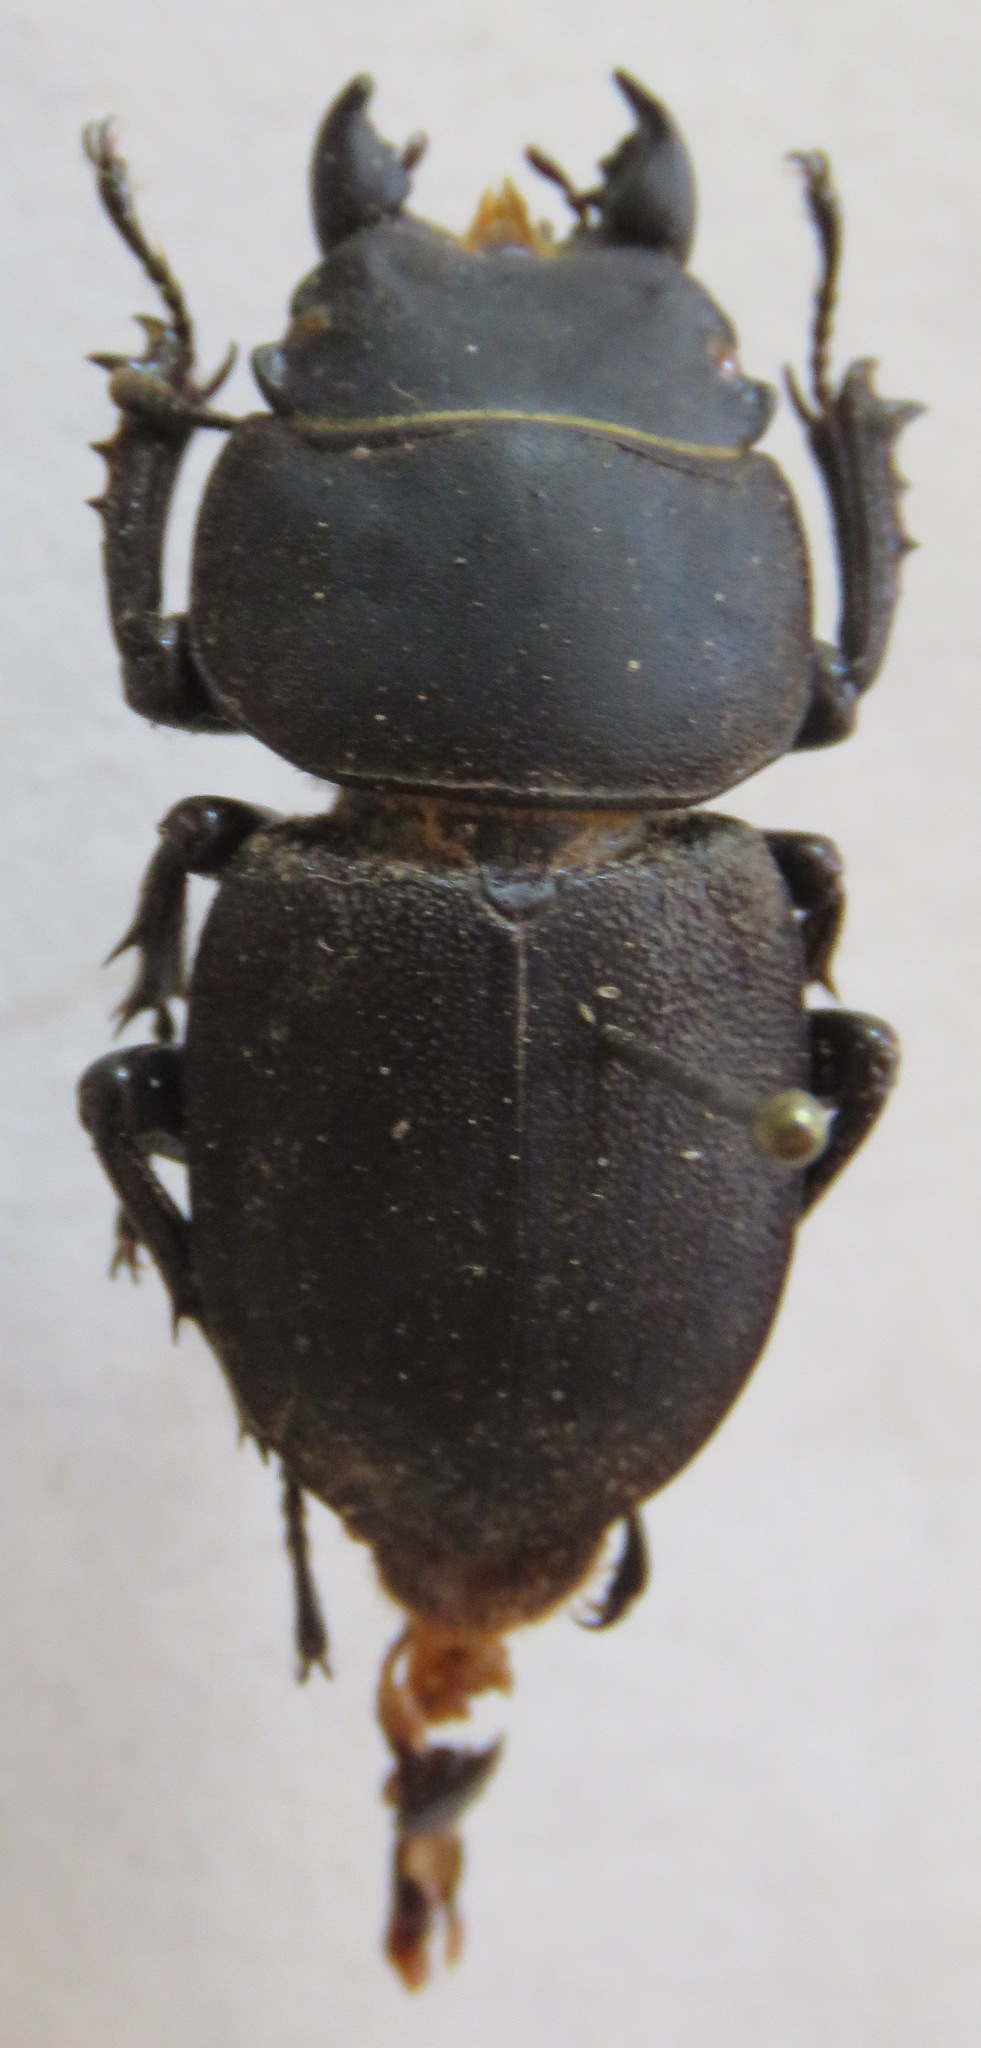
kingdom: Animalia
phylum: Arthropoda
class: Insecta
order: Coleoptera
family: Lucanidae
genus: Apterodorcus
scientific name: Apterodorcus bacchus
